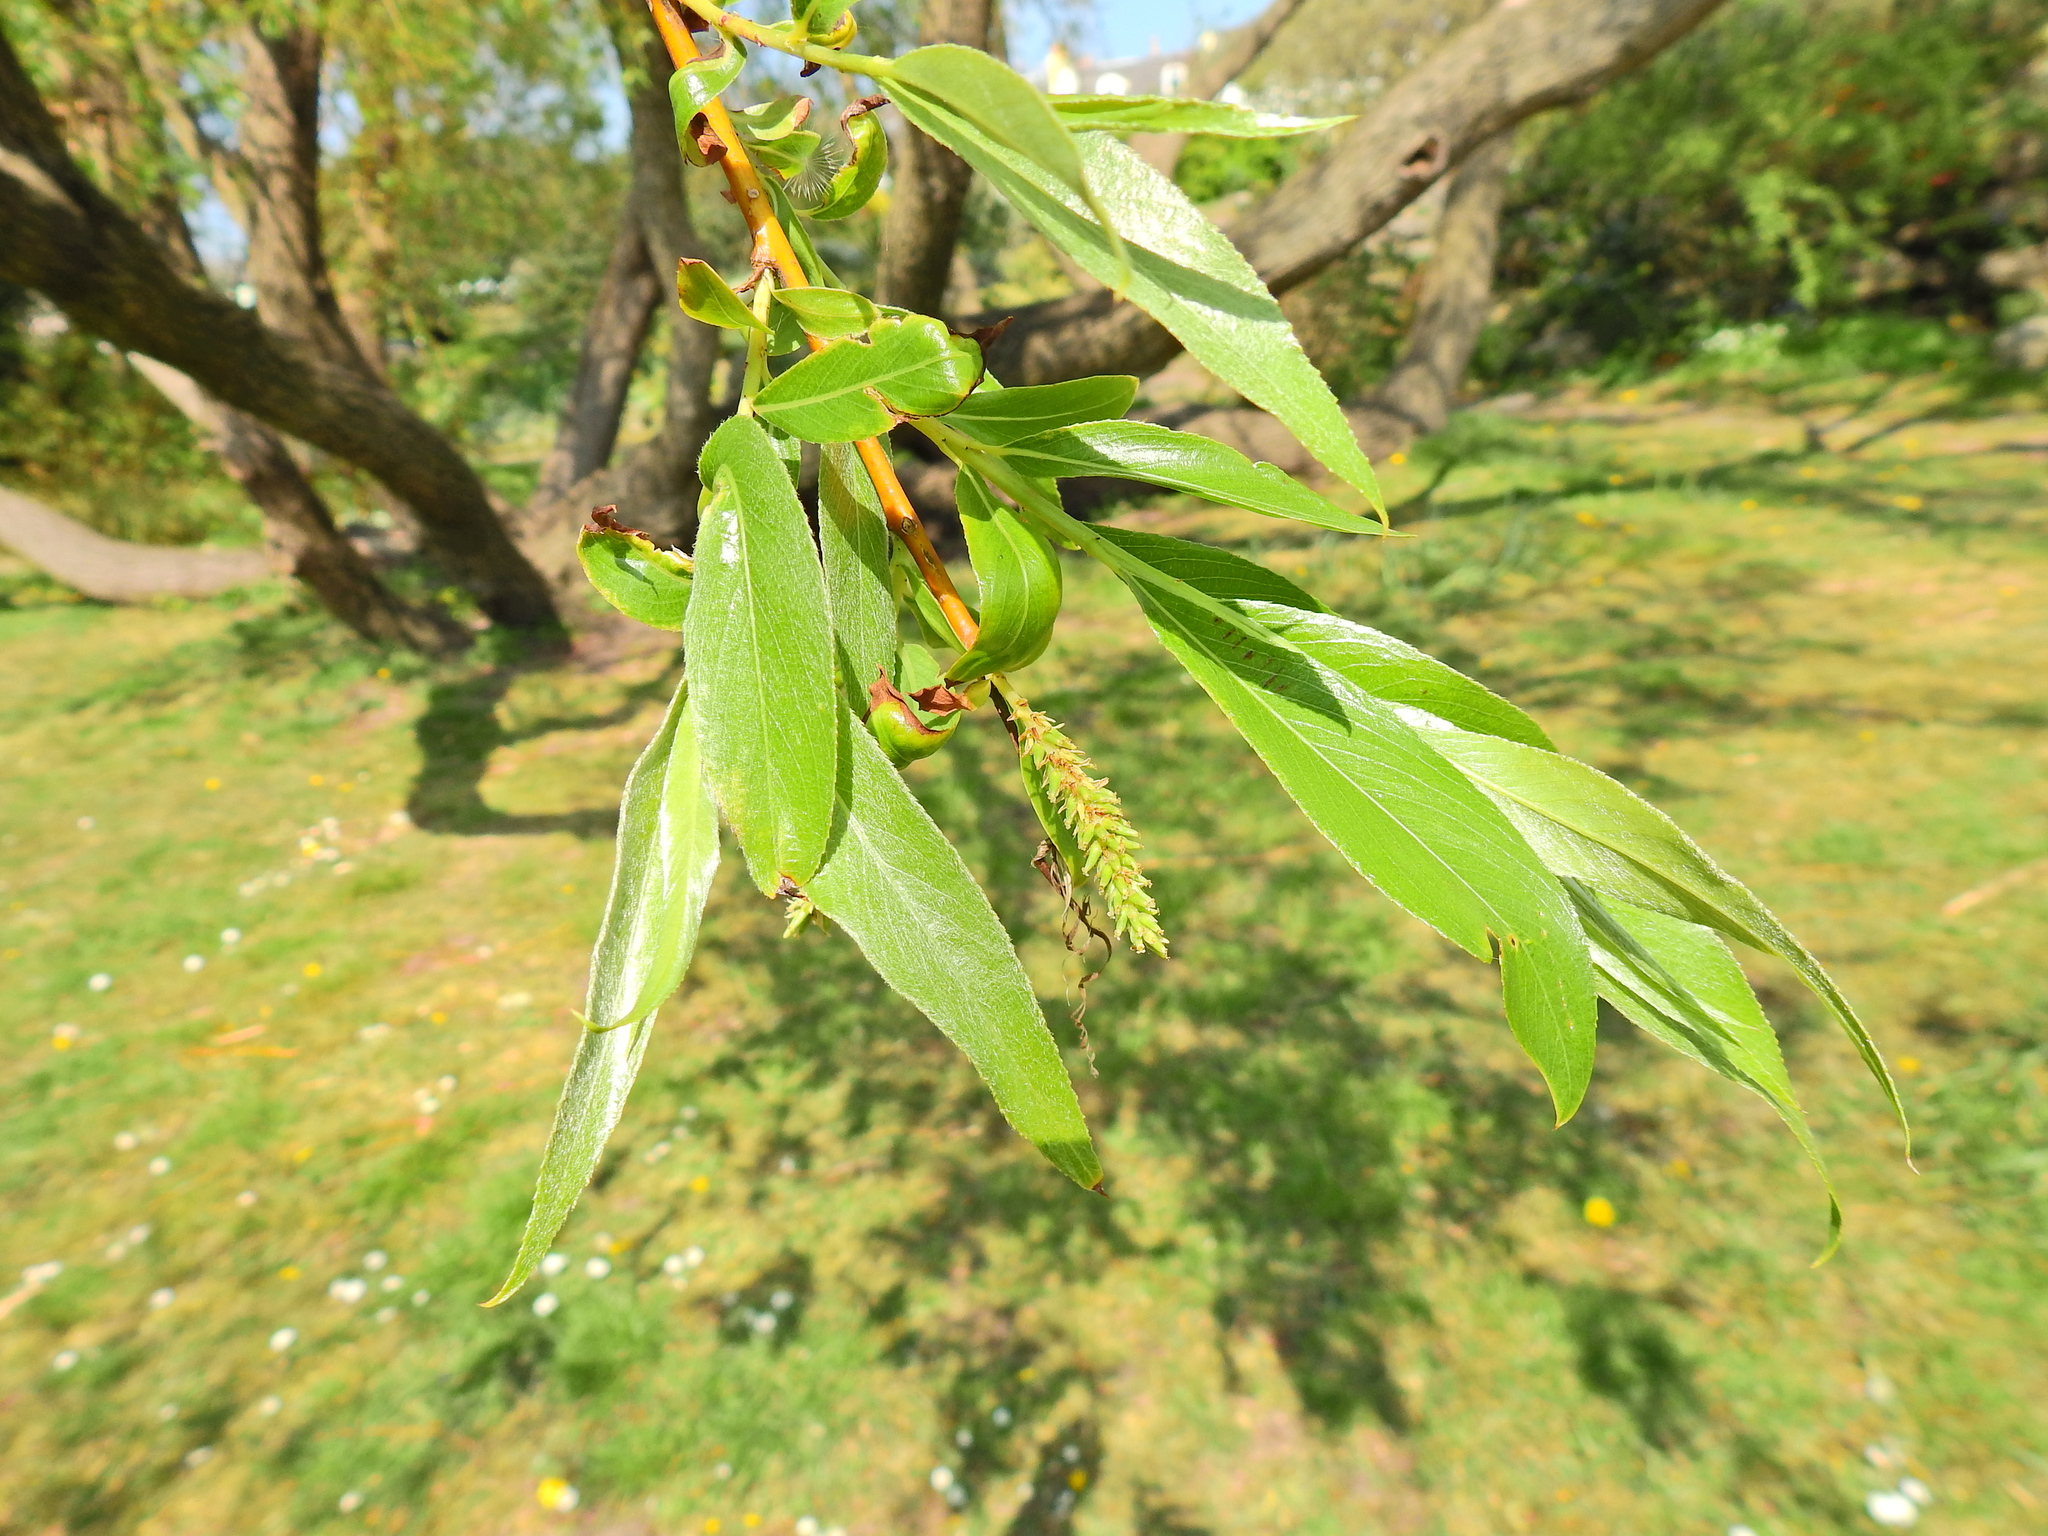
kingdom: Plantae
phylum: Tracheophyta
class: Magnoliopsida
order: Malpighiales
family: Salicaceae
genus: Salix
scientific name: Salix fragilis
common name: Crack willow
